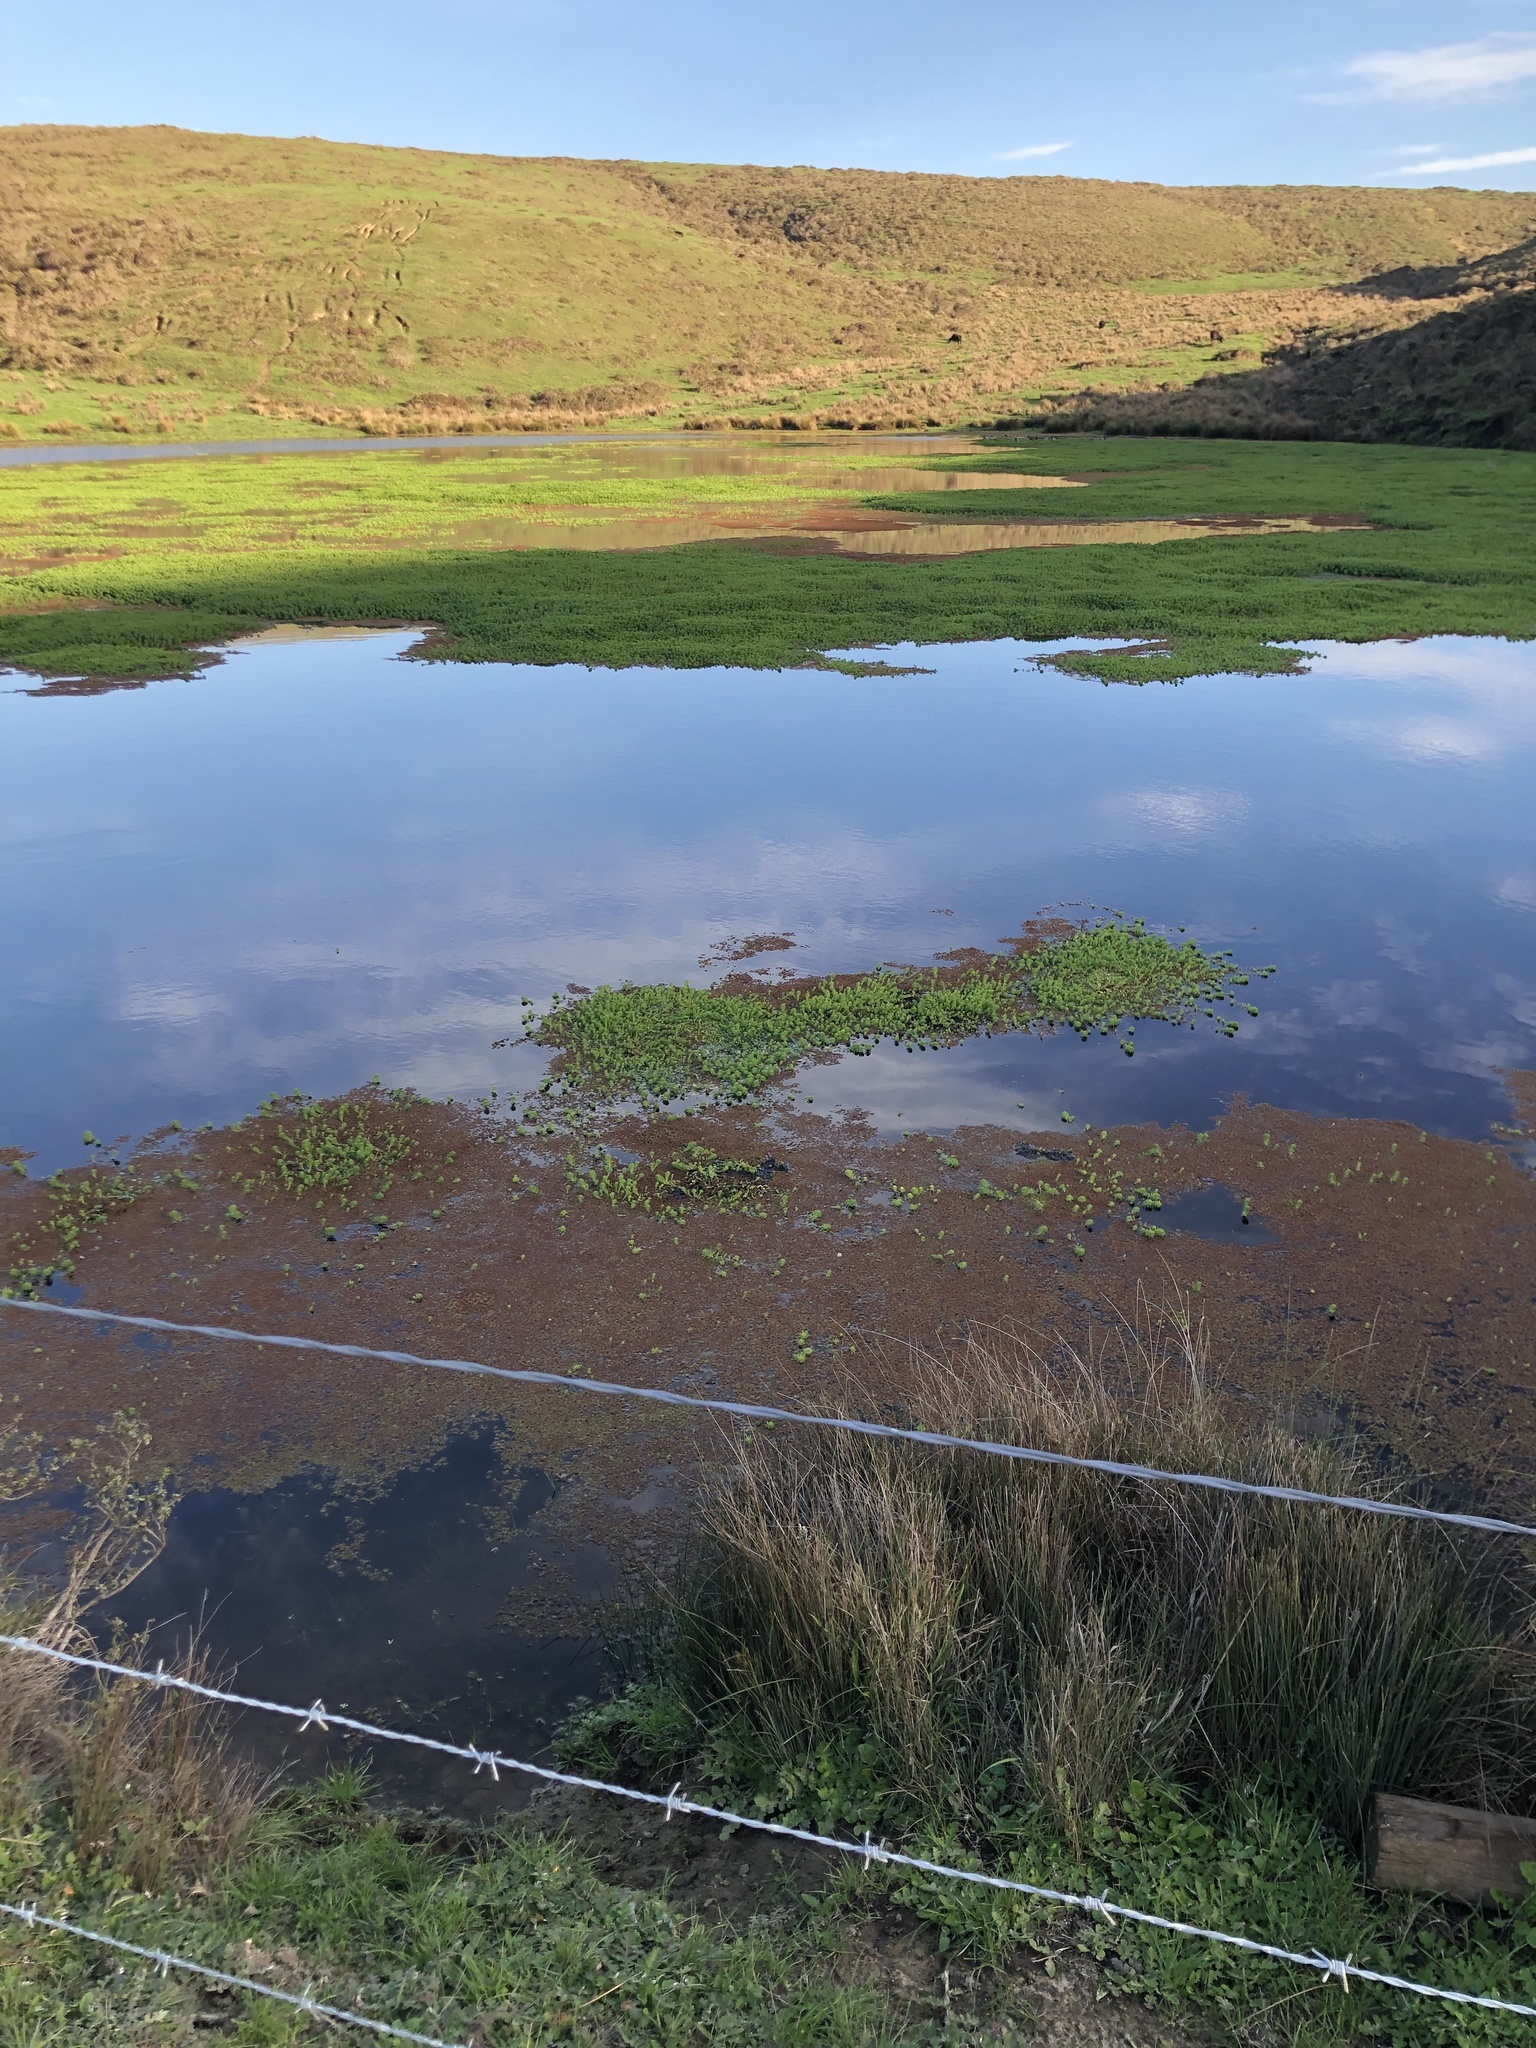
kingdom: Plantae
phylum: Tracheophyta
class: Magnoliopsida
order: Saxifragales
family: Haloragaceae
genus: Myriophyllum
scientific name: Myriophyllum aquaticum
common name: Parrot's feather
